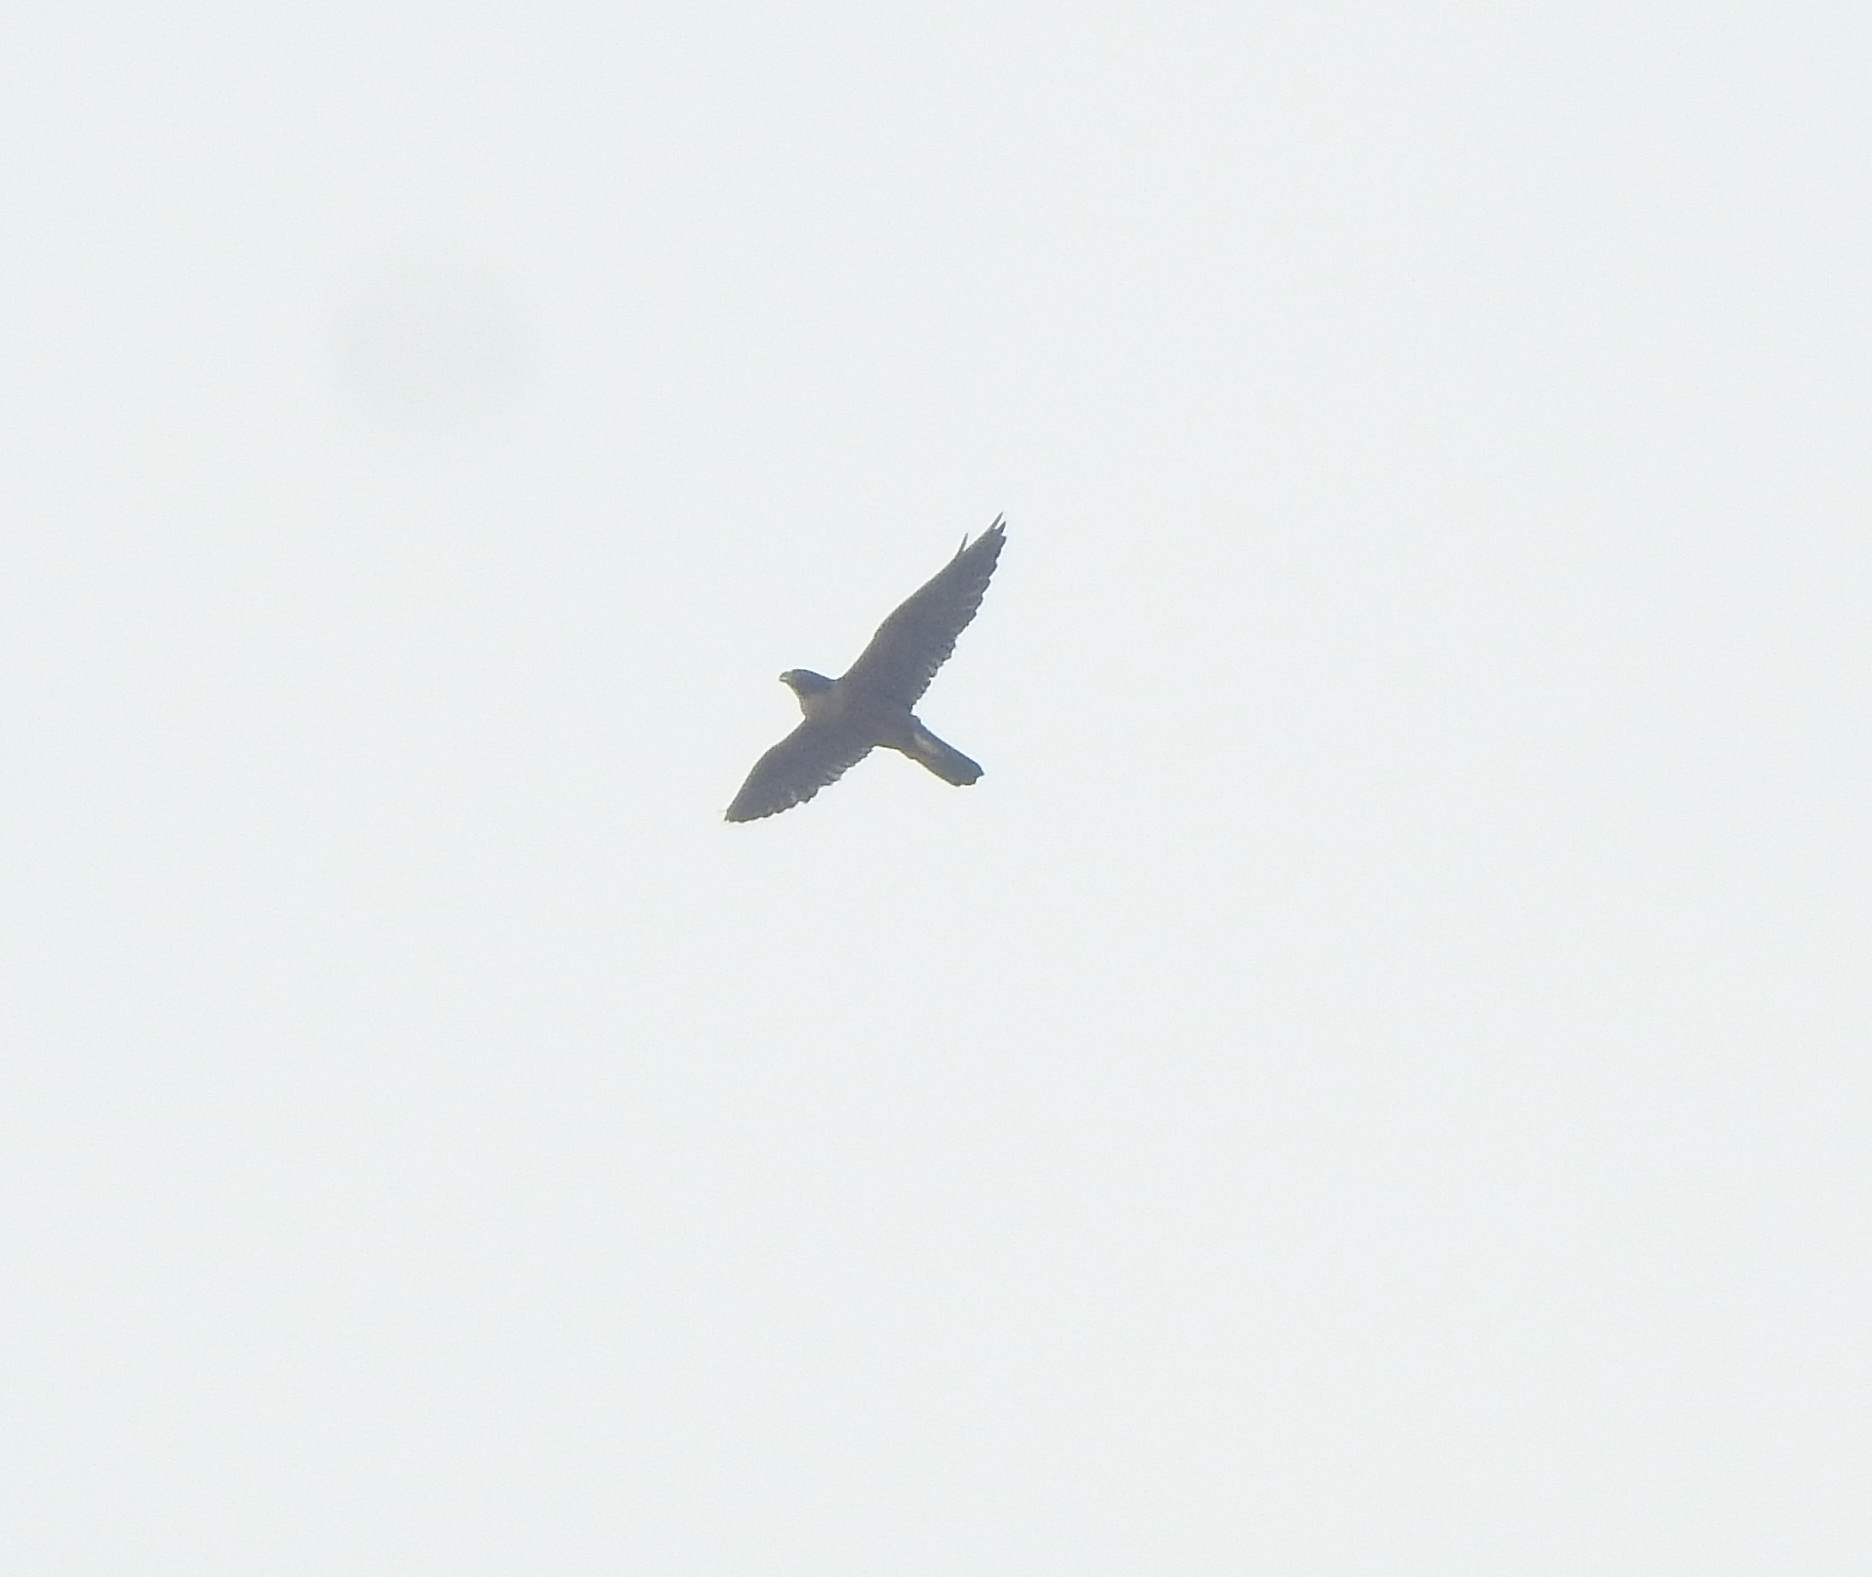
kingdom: Animalia
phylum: Chordata
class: Aves
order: Falconiformes
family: Falconidae
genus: Falco
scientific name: Falco peregrinus
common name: Peregrine falcon
